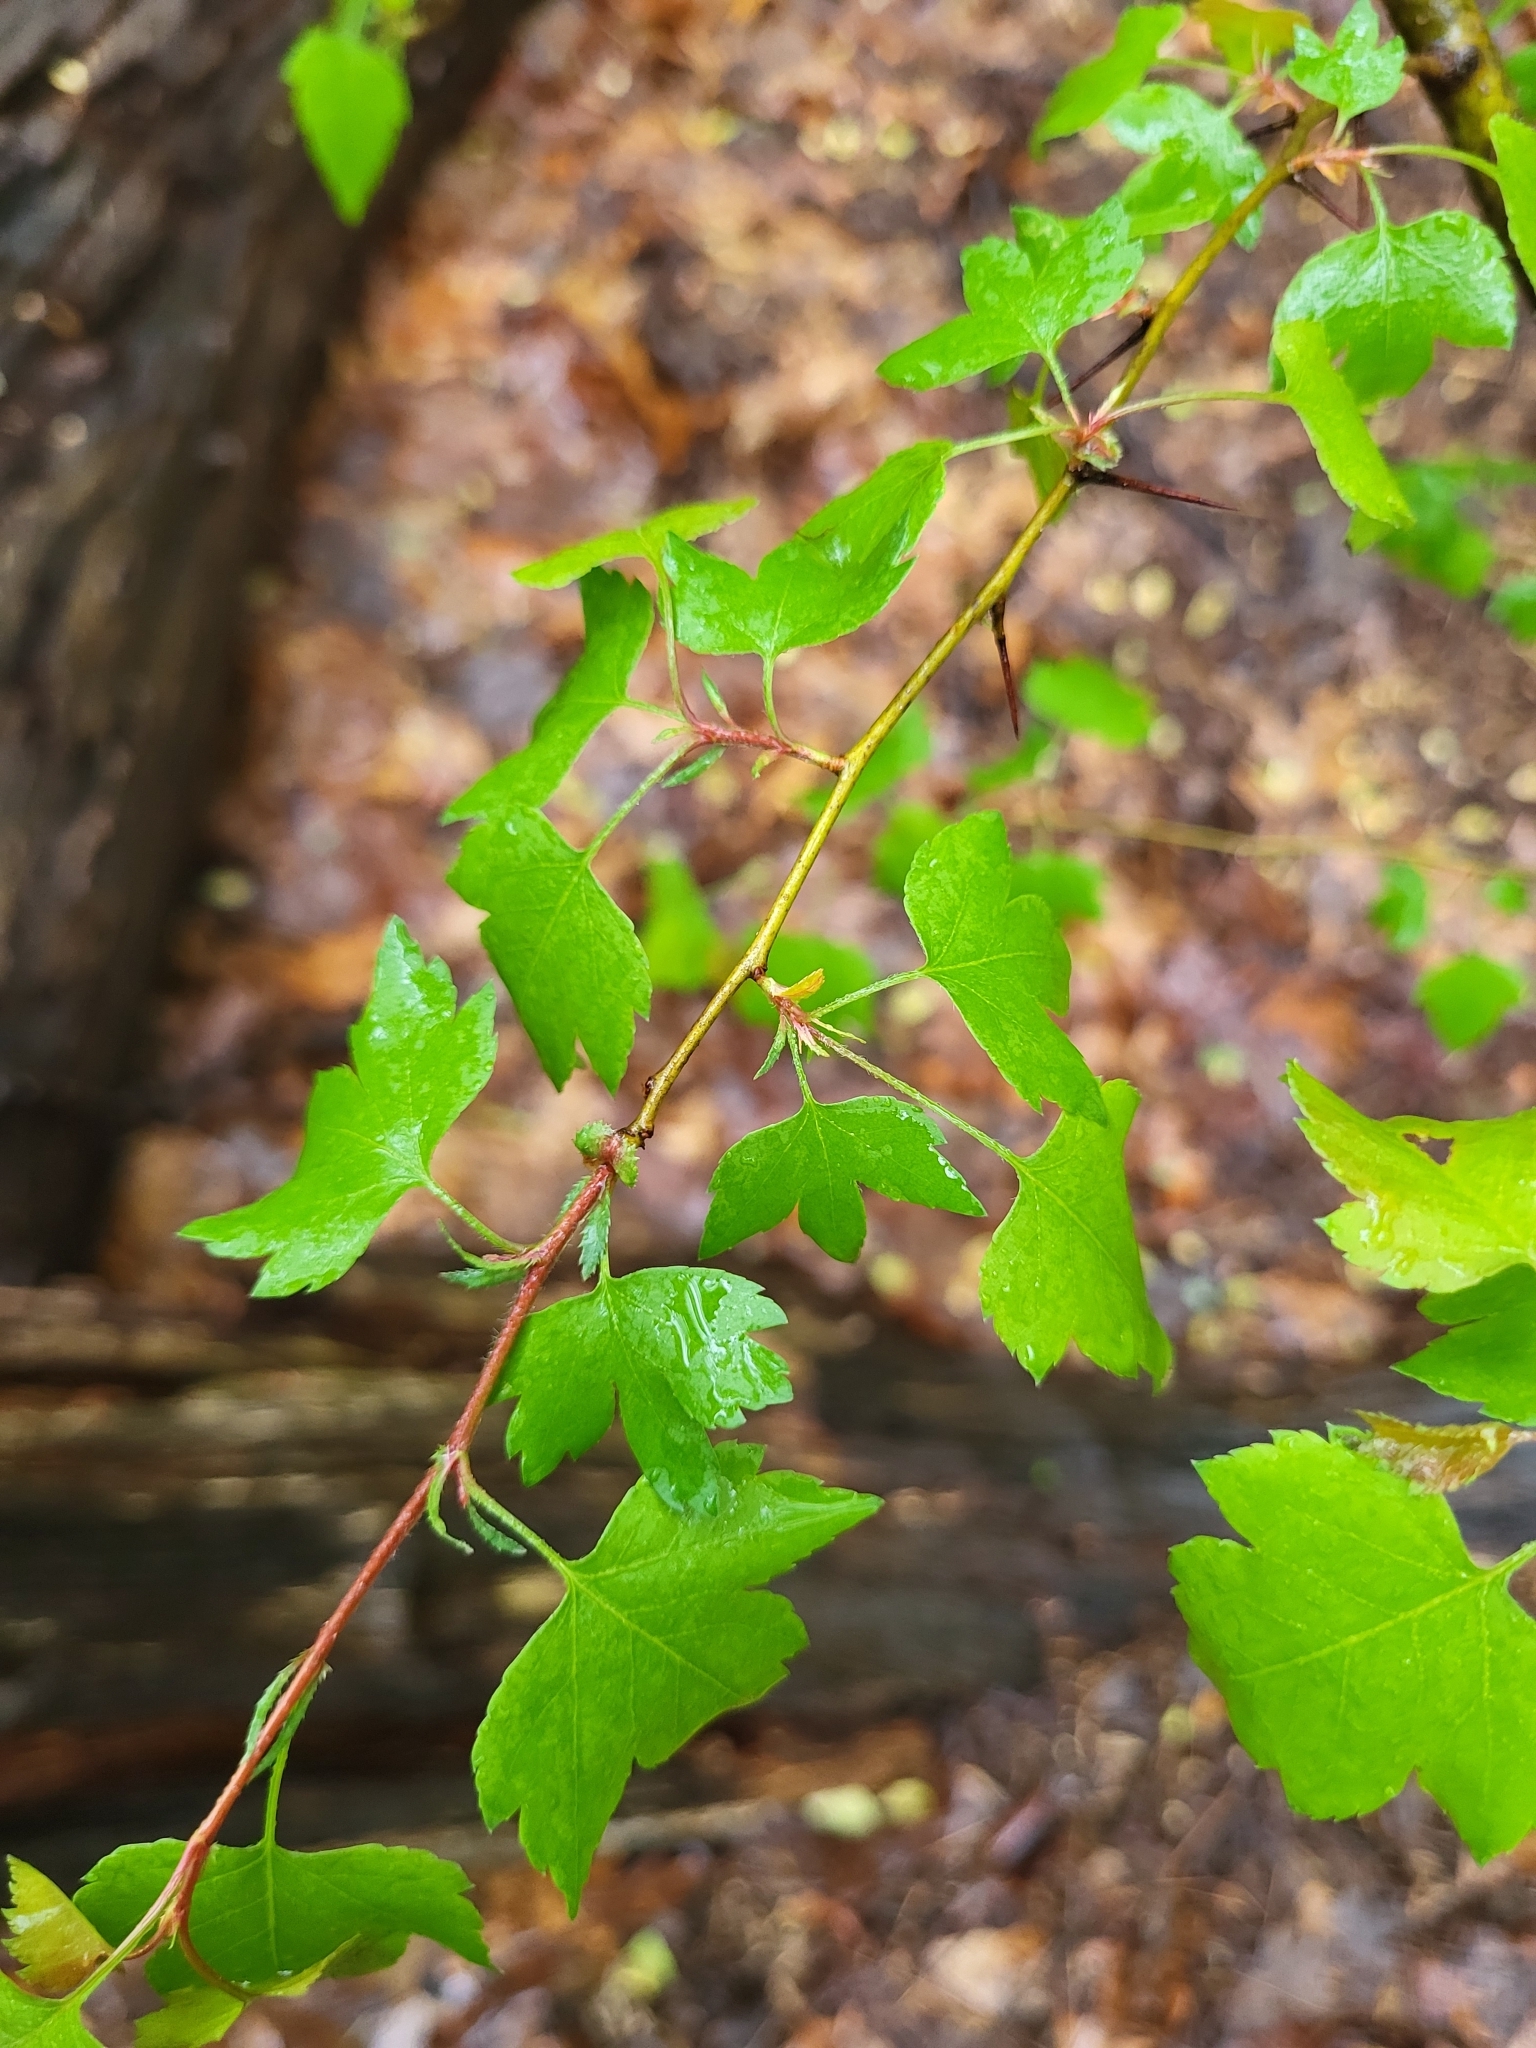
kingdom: Plantae
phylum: Tracheophyta
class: Magnoliopsida
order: Rosales
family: Rosaceae
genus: Crataegus
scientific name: Crataegus phaenopyrum
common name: Washington hawthorn
